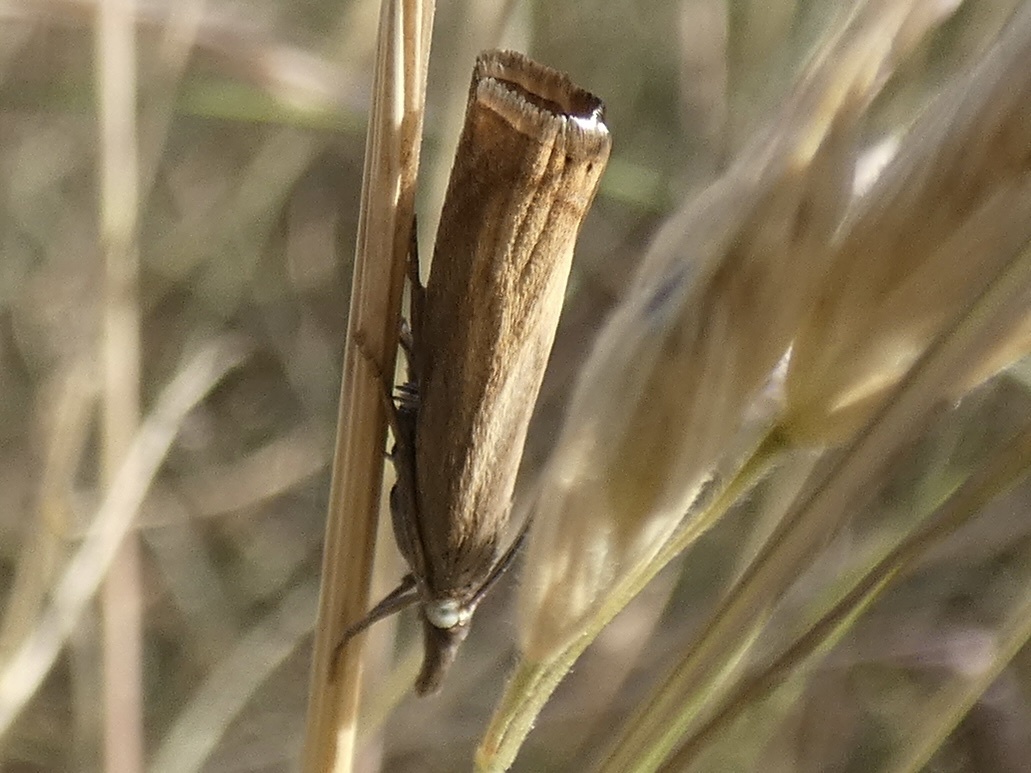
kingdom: Animalia
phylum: Arthropoda
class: Insecta
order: Lepidoptera
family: Crambidae
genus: Chrysoteuchia
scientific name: Chrysoteuchia culmella
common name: Garden grass-veneer
